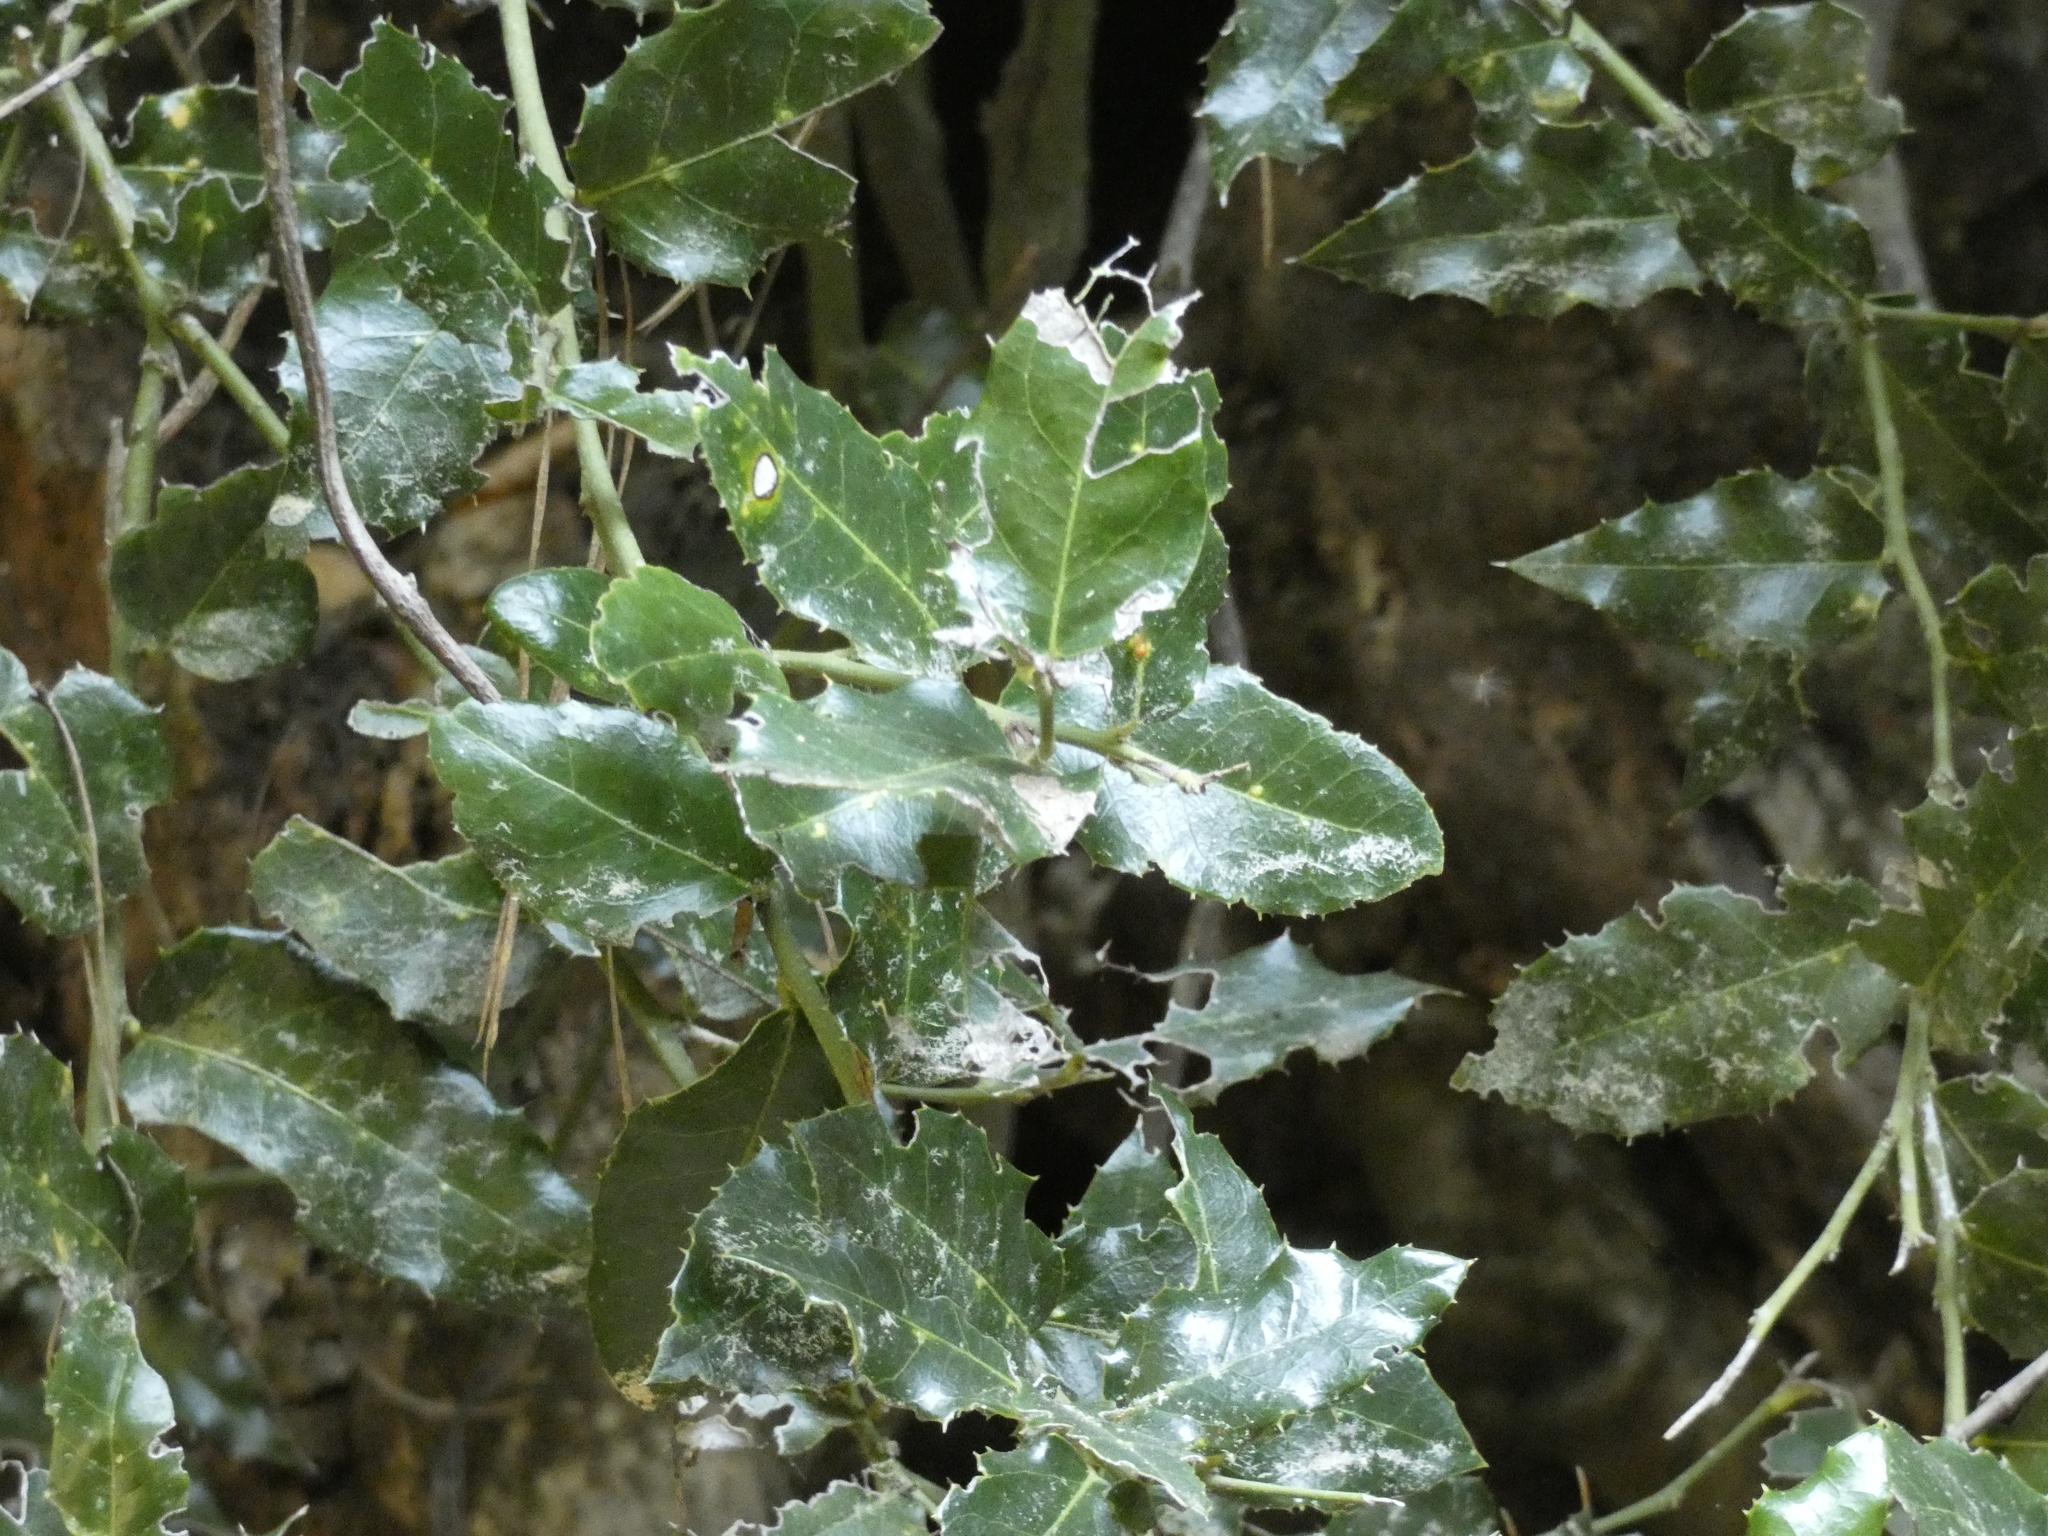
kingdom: Plantae
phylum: Tracheophyta
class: Magnoliopsida
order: Cardiopteridales
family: Cardiopteridaceae
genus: Citronella
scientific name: Citronella mucronata
